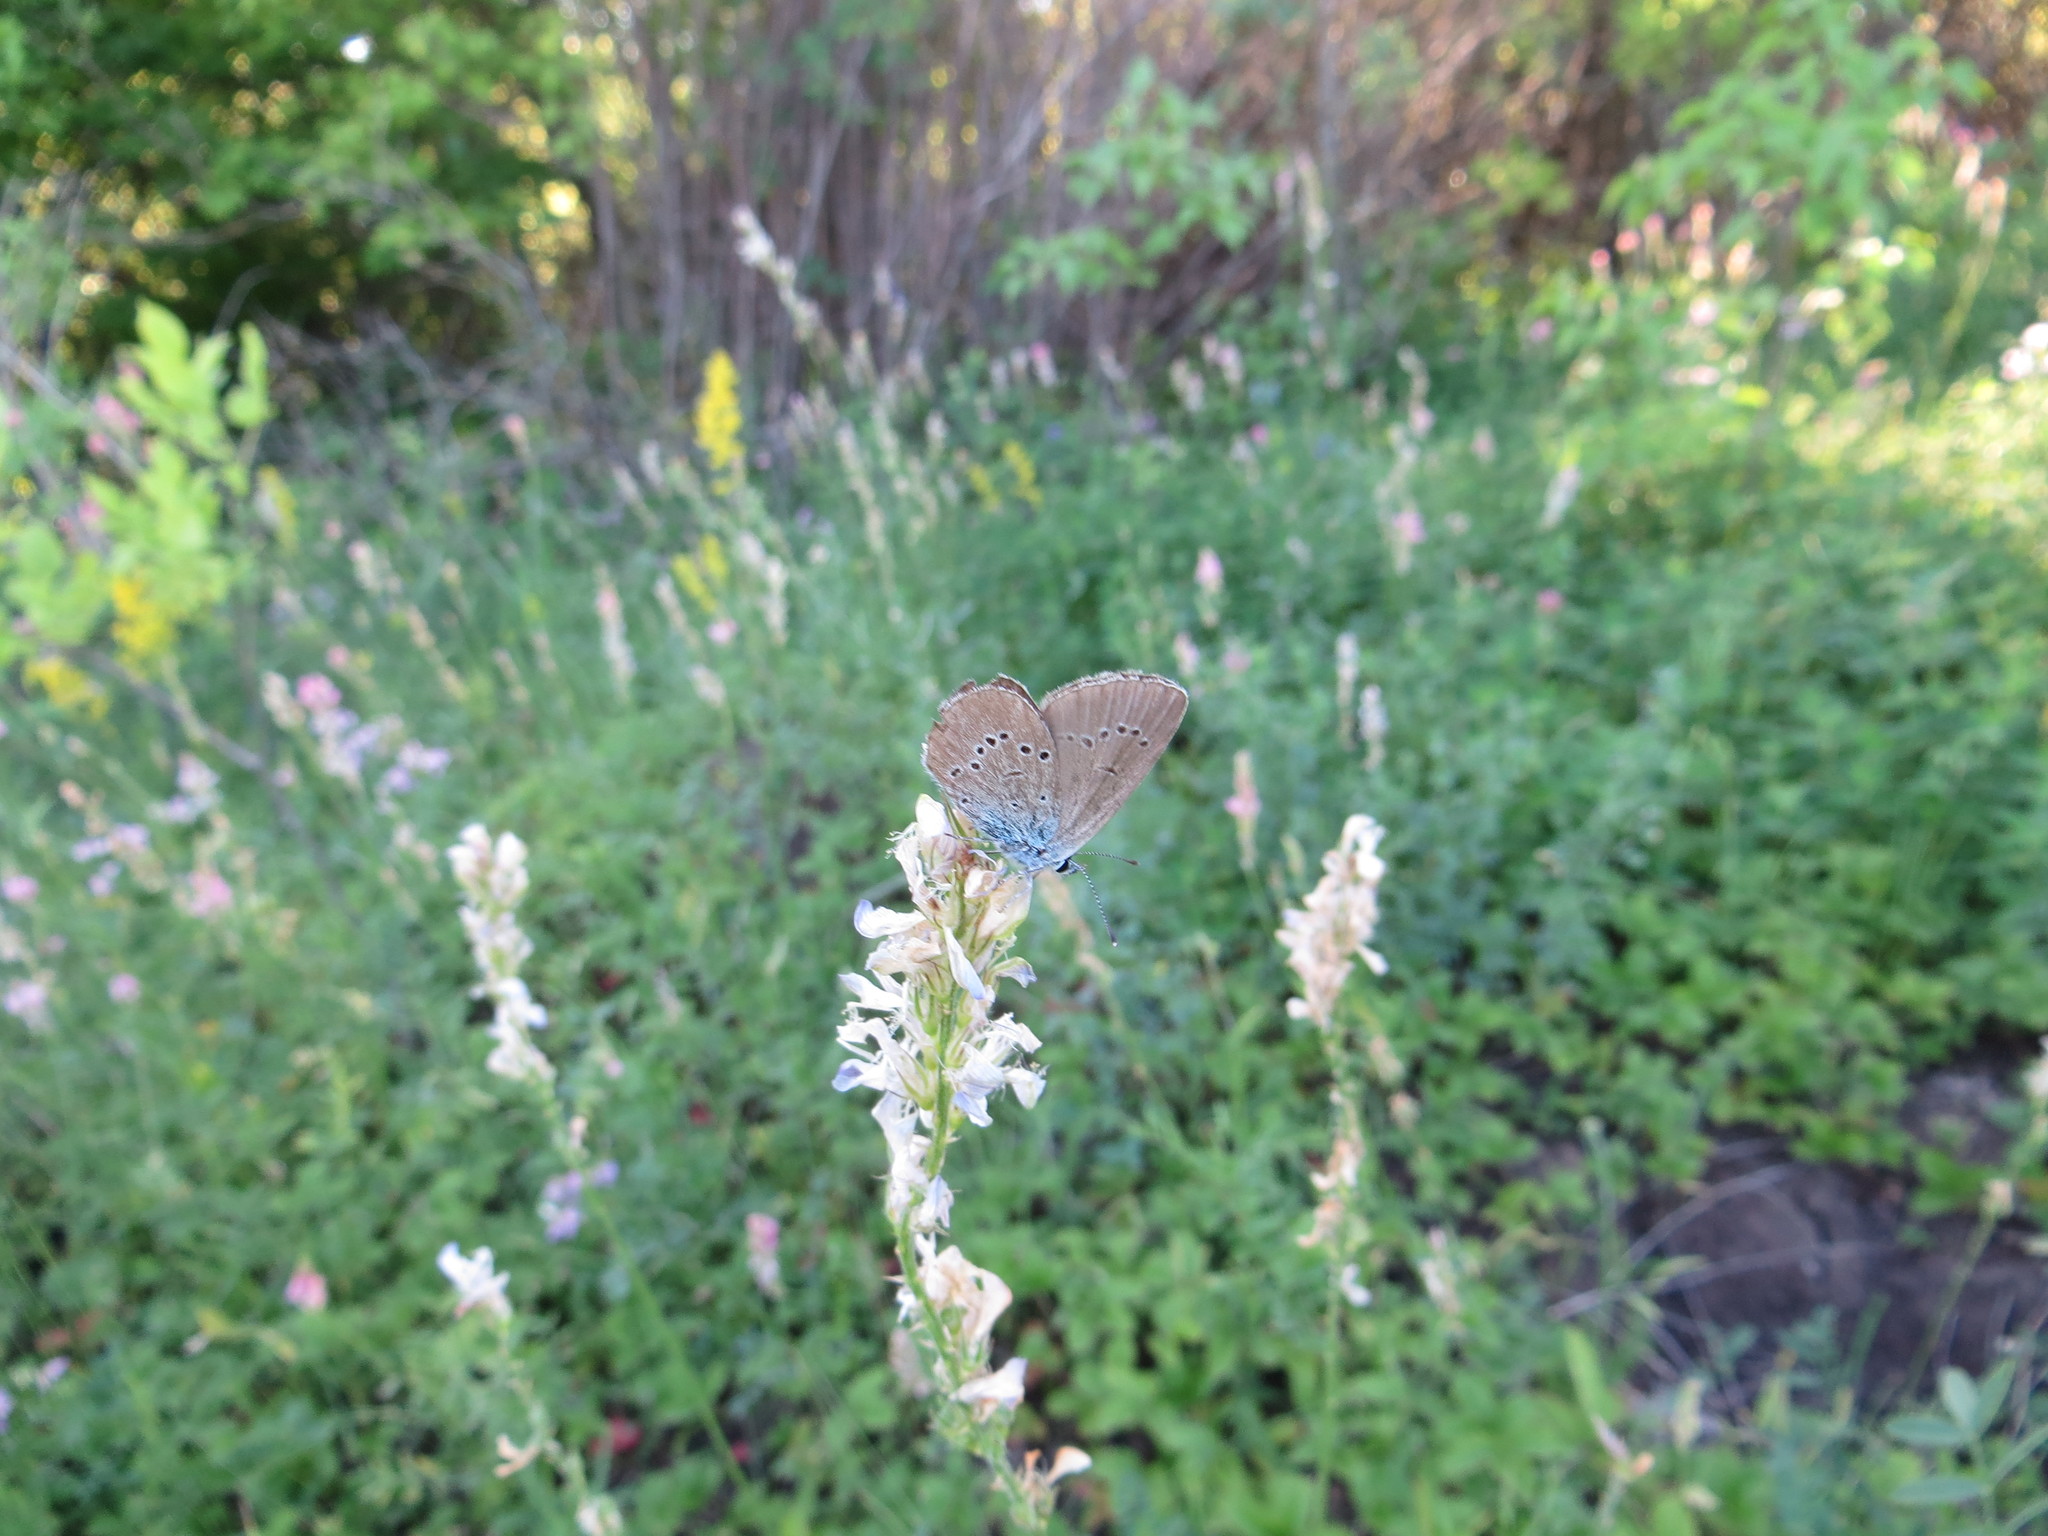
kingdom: Animalia
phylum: Arthropoda
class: Insecta
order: Lepidoptera
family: Lycaenidae
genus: Cyaniris
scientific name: Cyaniris semiargus
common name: Mazarine blue
